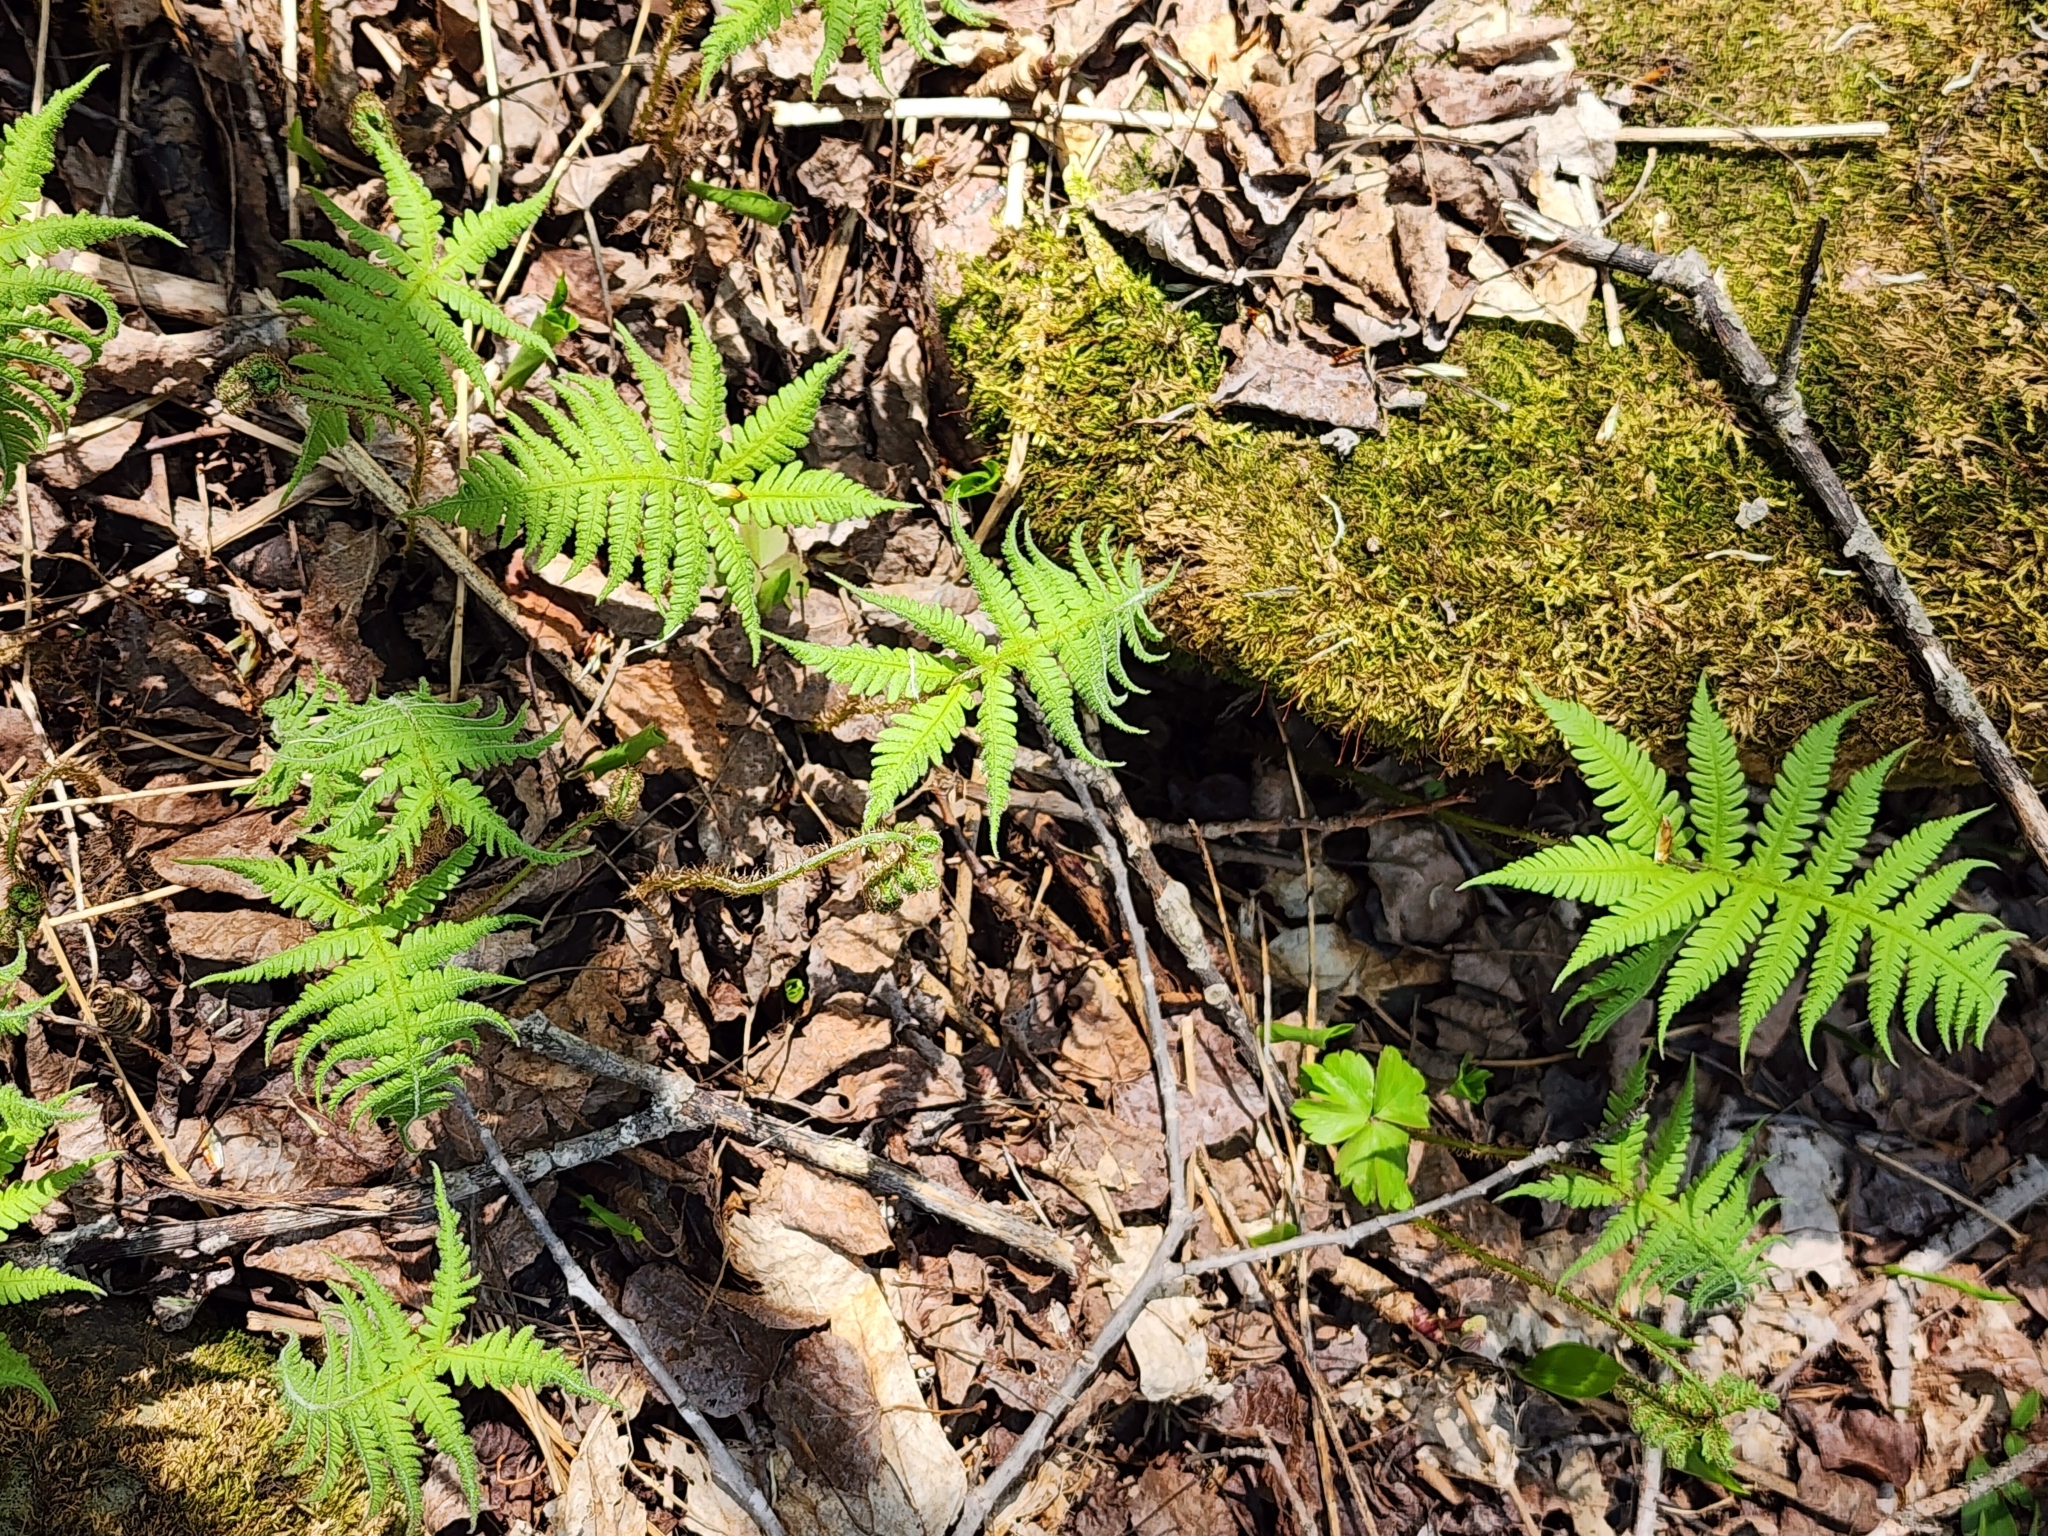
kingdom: Plantae
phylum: Tracheophyta
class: Polypodiopsida
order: Polypodiales
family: Thelypteridaceae
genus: Phegopteris
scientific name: Phegopteris connectilis
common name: Beech fern
